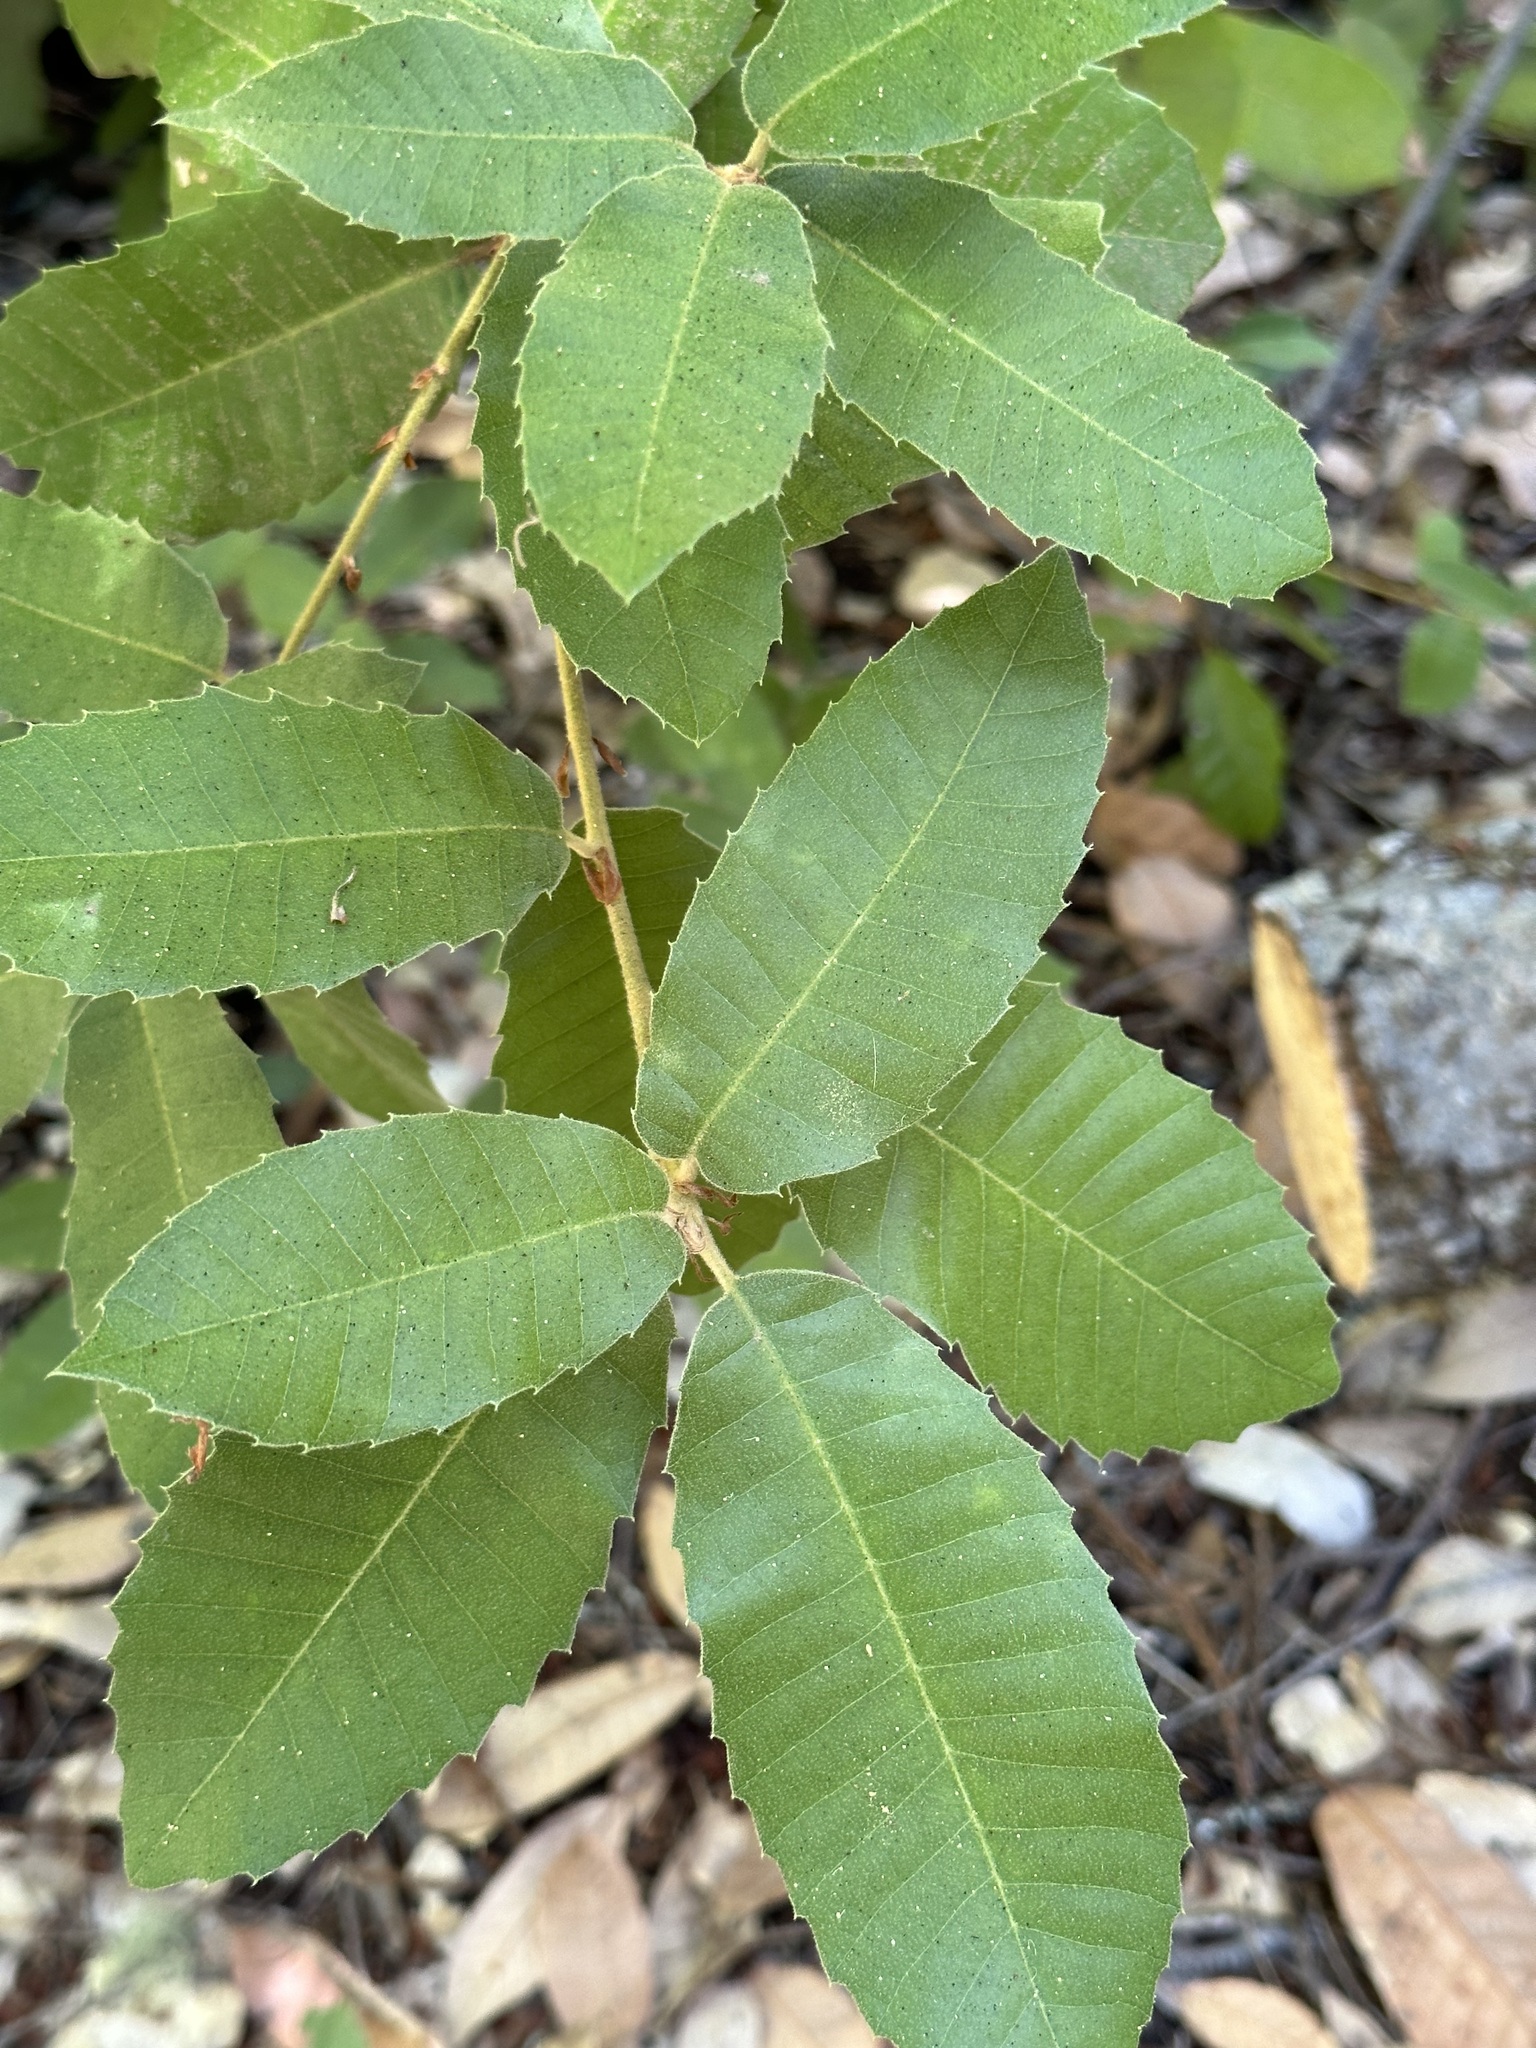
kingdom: Plantae
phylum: Tracheophyta
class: Magnoliopsida
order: Fagales
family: Fagaceae
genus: Notholithocarpus
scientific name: Notholithocarpus densiflorus
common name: Tan bark oak
